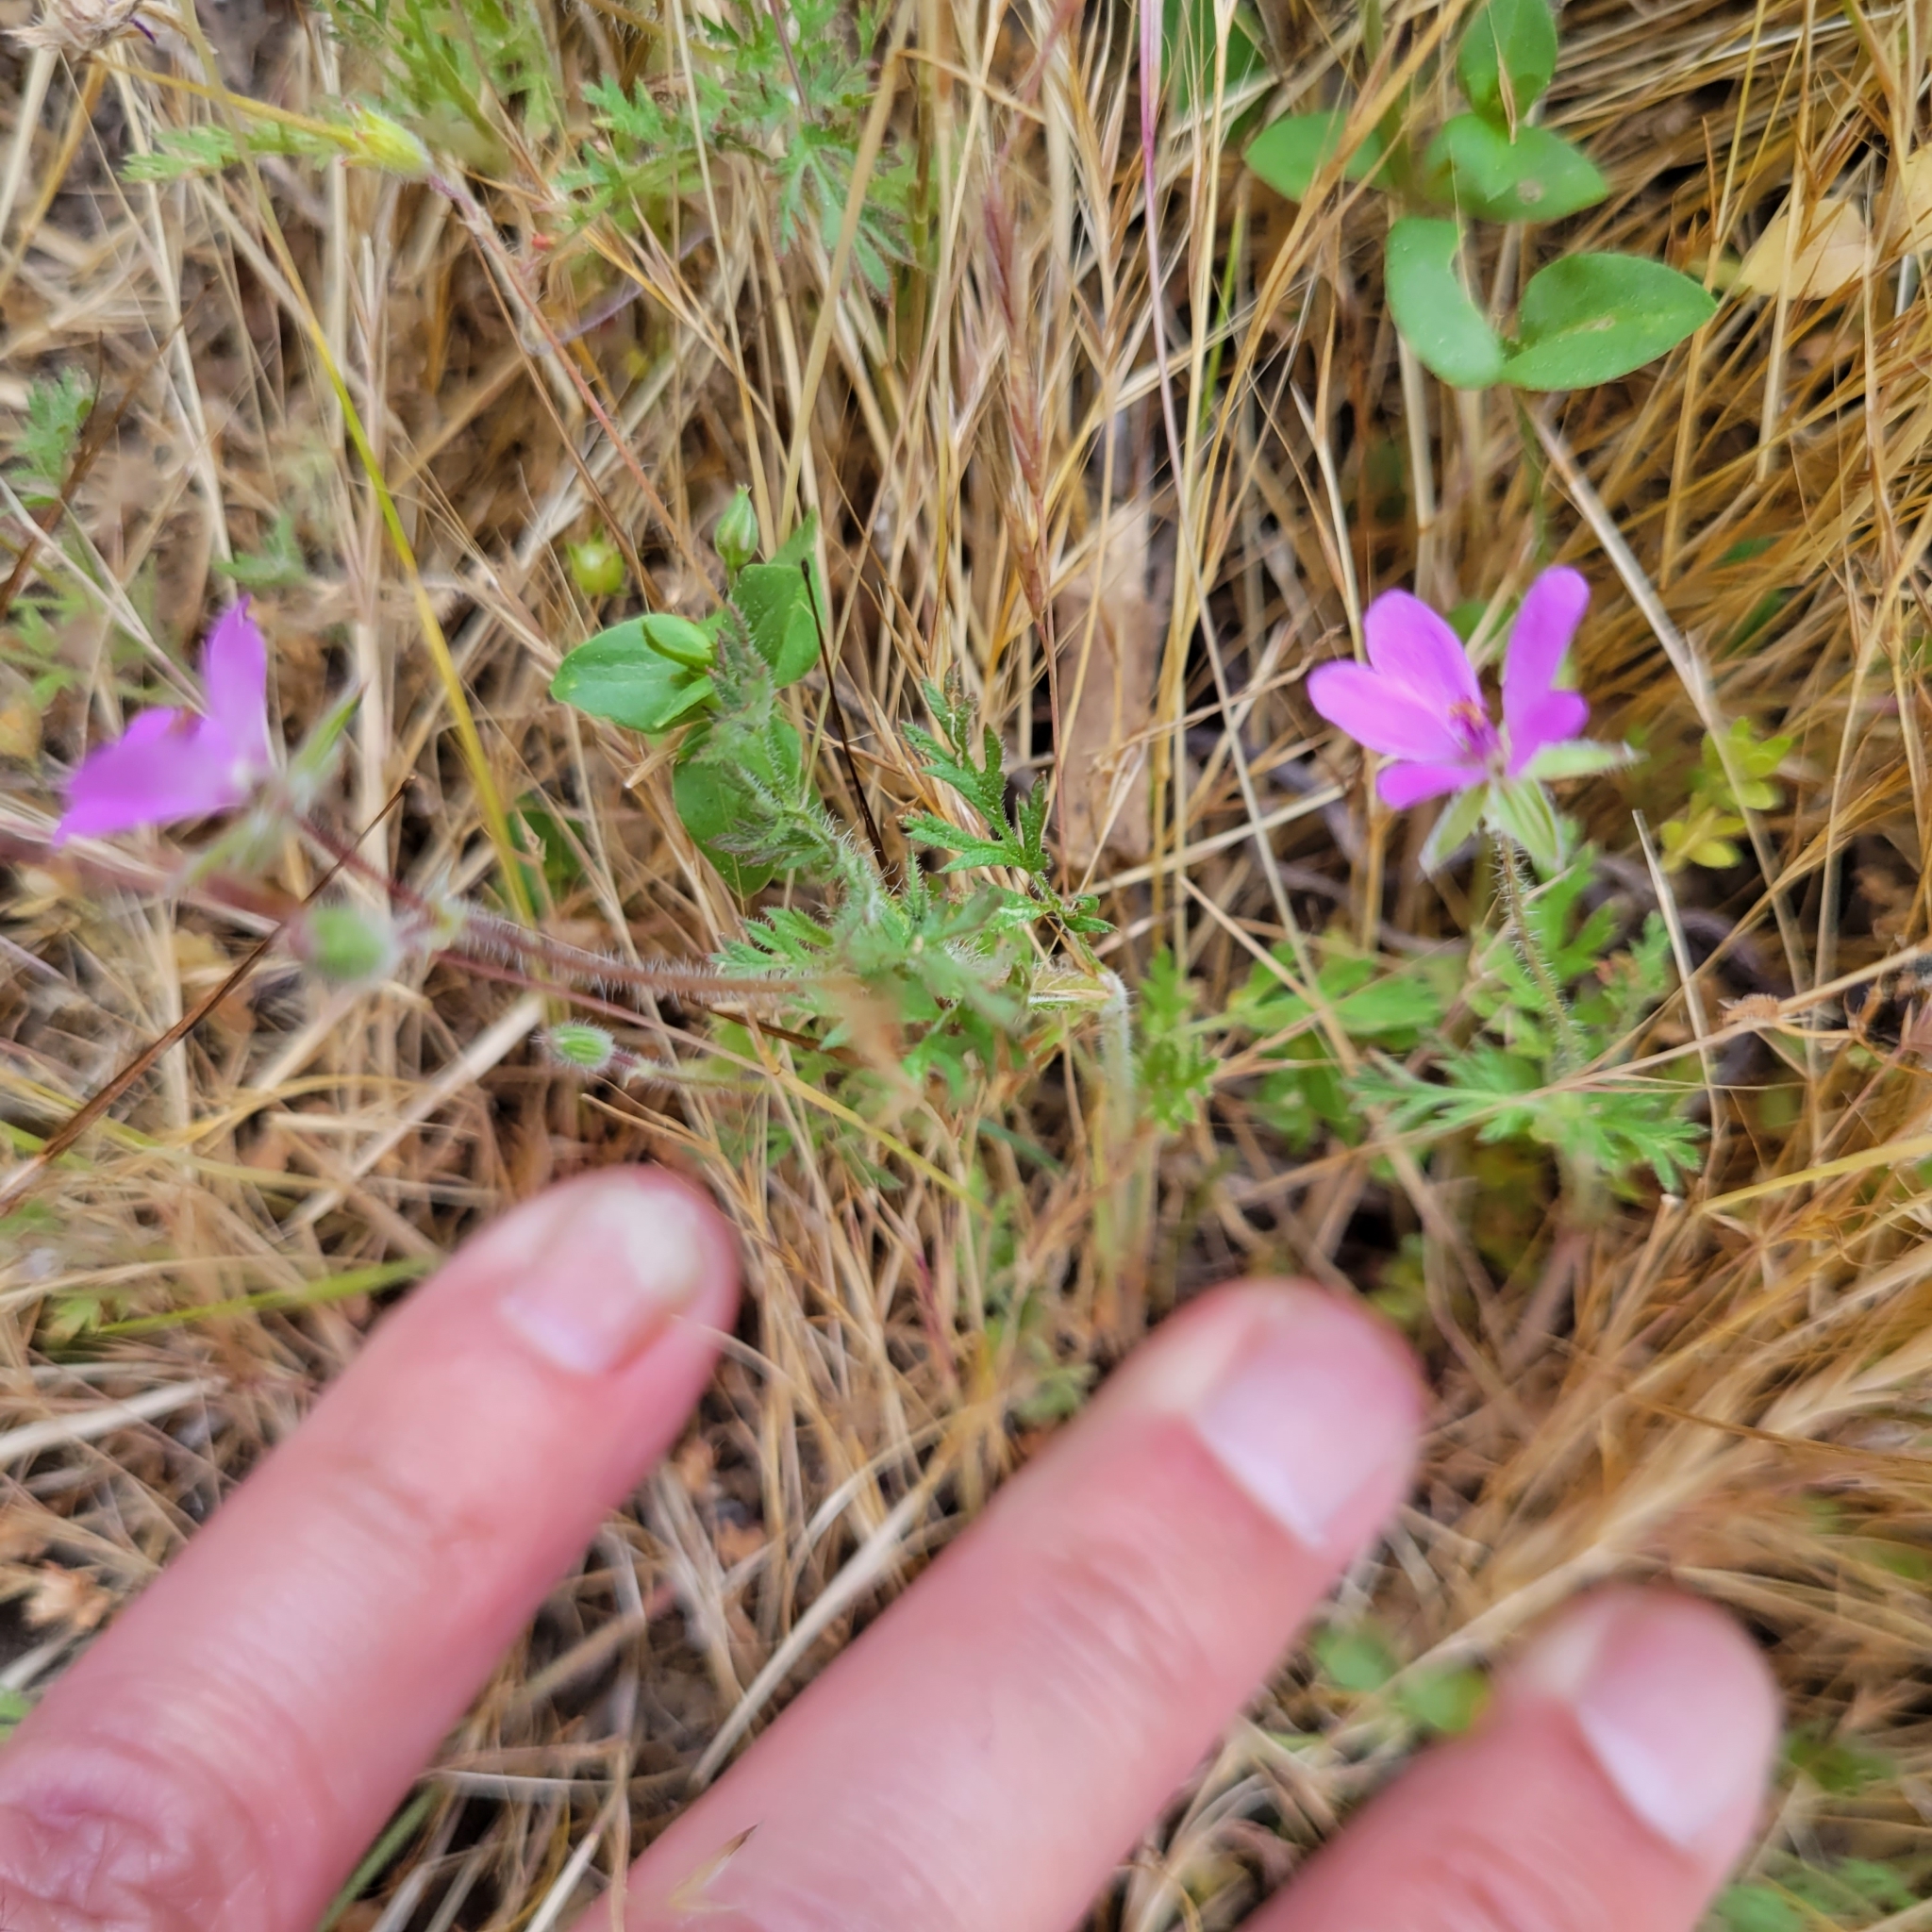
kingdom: Plantae
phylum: Tracheophyta
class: Magnoliopsida
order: Geraniales
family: Geraniaceae
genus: Erodium
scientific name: Erodium cicutarium
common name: Common stork's-bill
